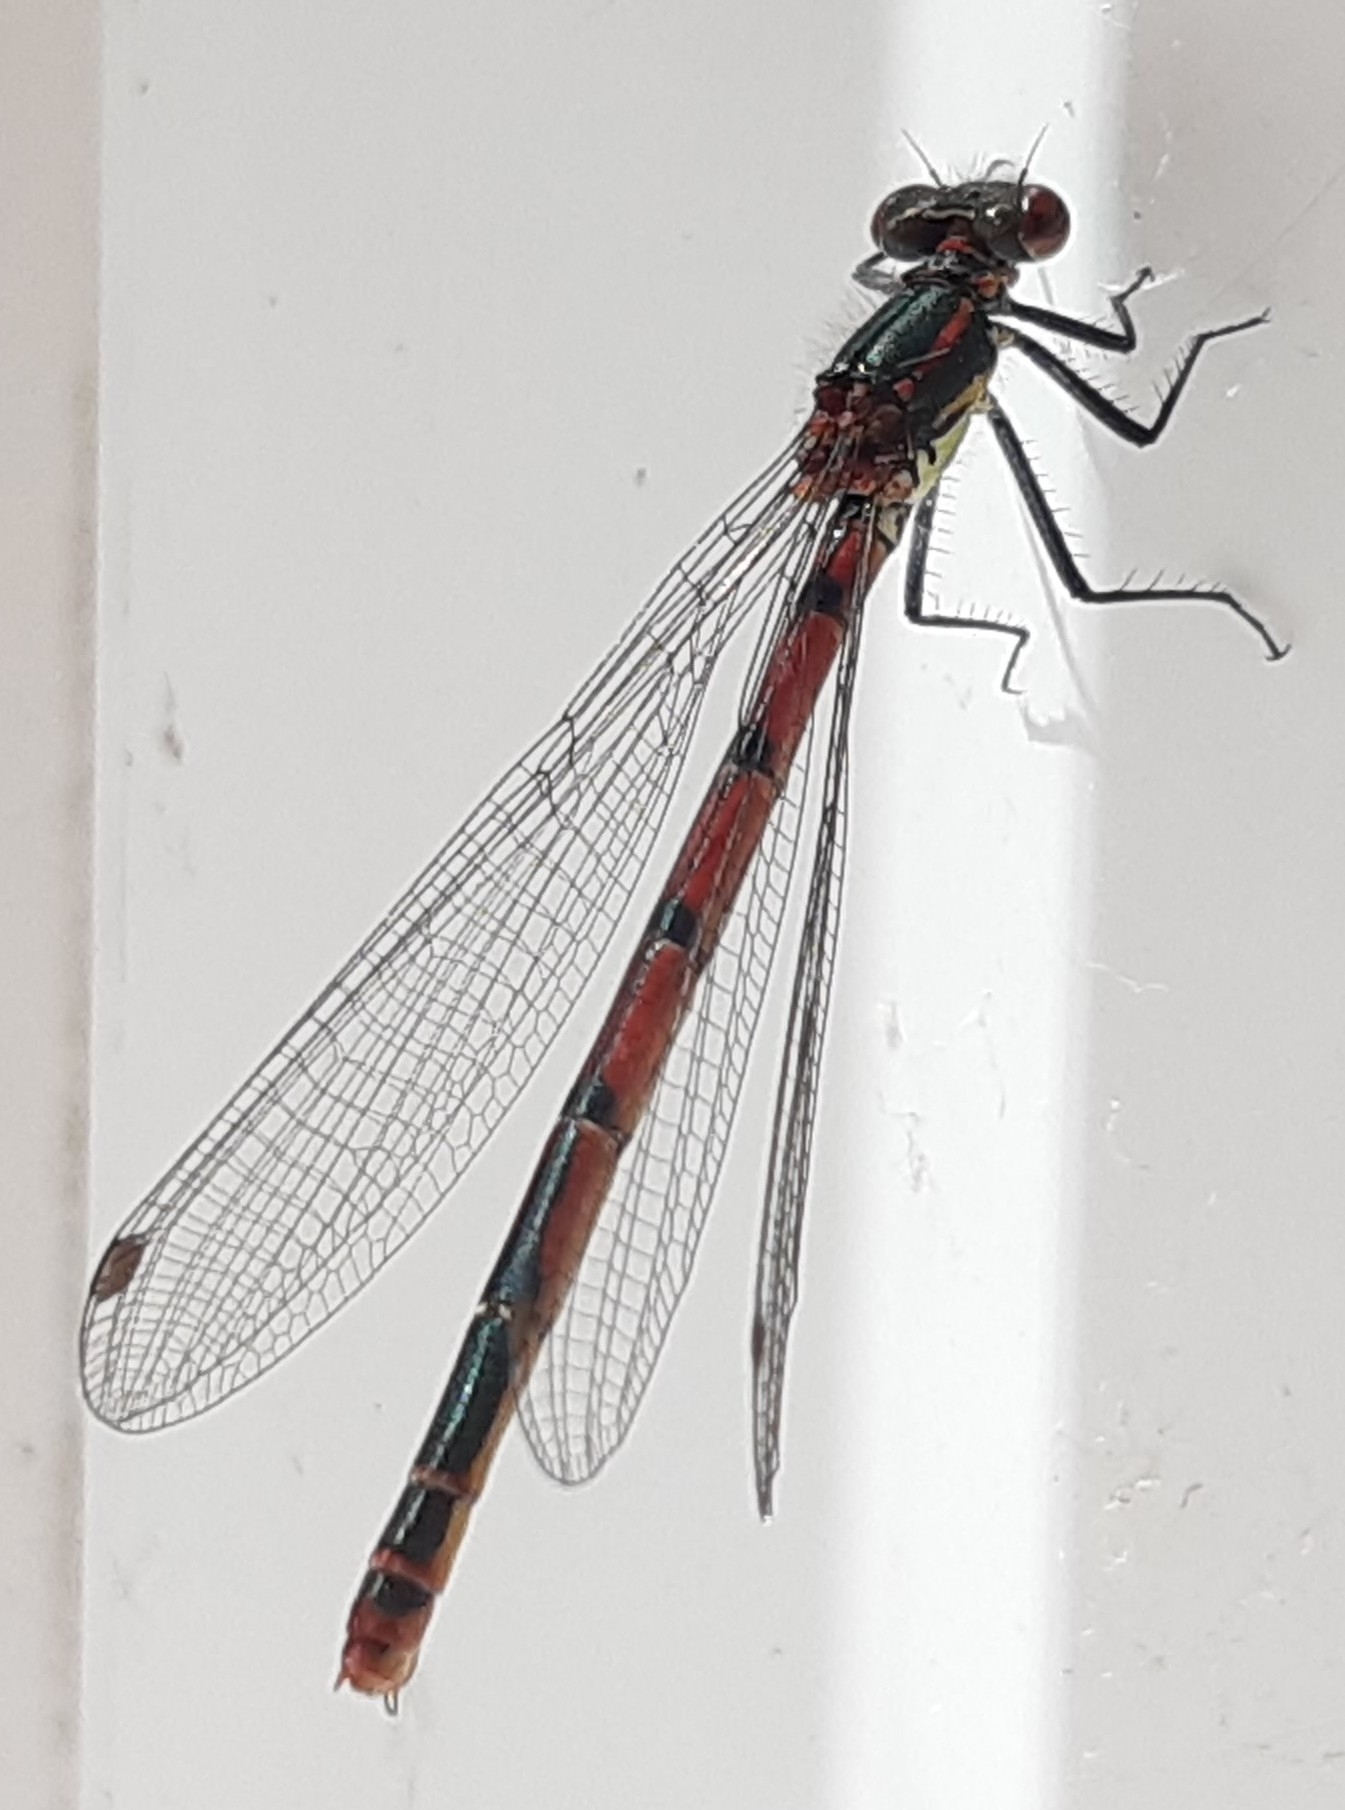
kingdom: Animalia
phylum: Arthropoda
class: Insecta
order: Odonata
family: Coenagrionidae
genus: Pyrrhosoma
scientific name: Pyrrhosoma nymphula
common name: Large red damsel
